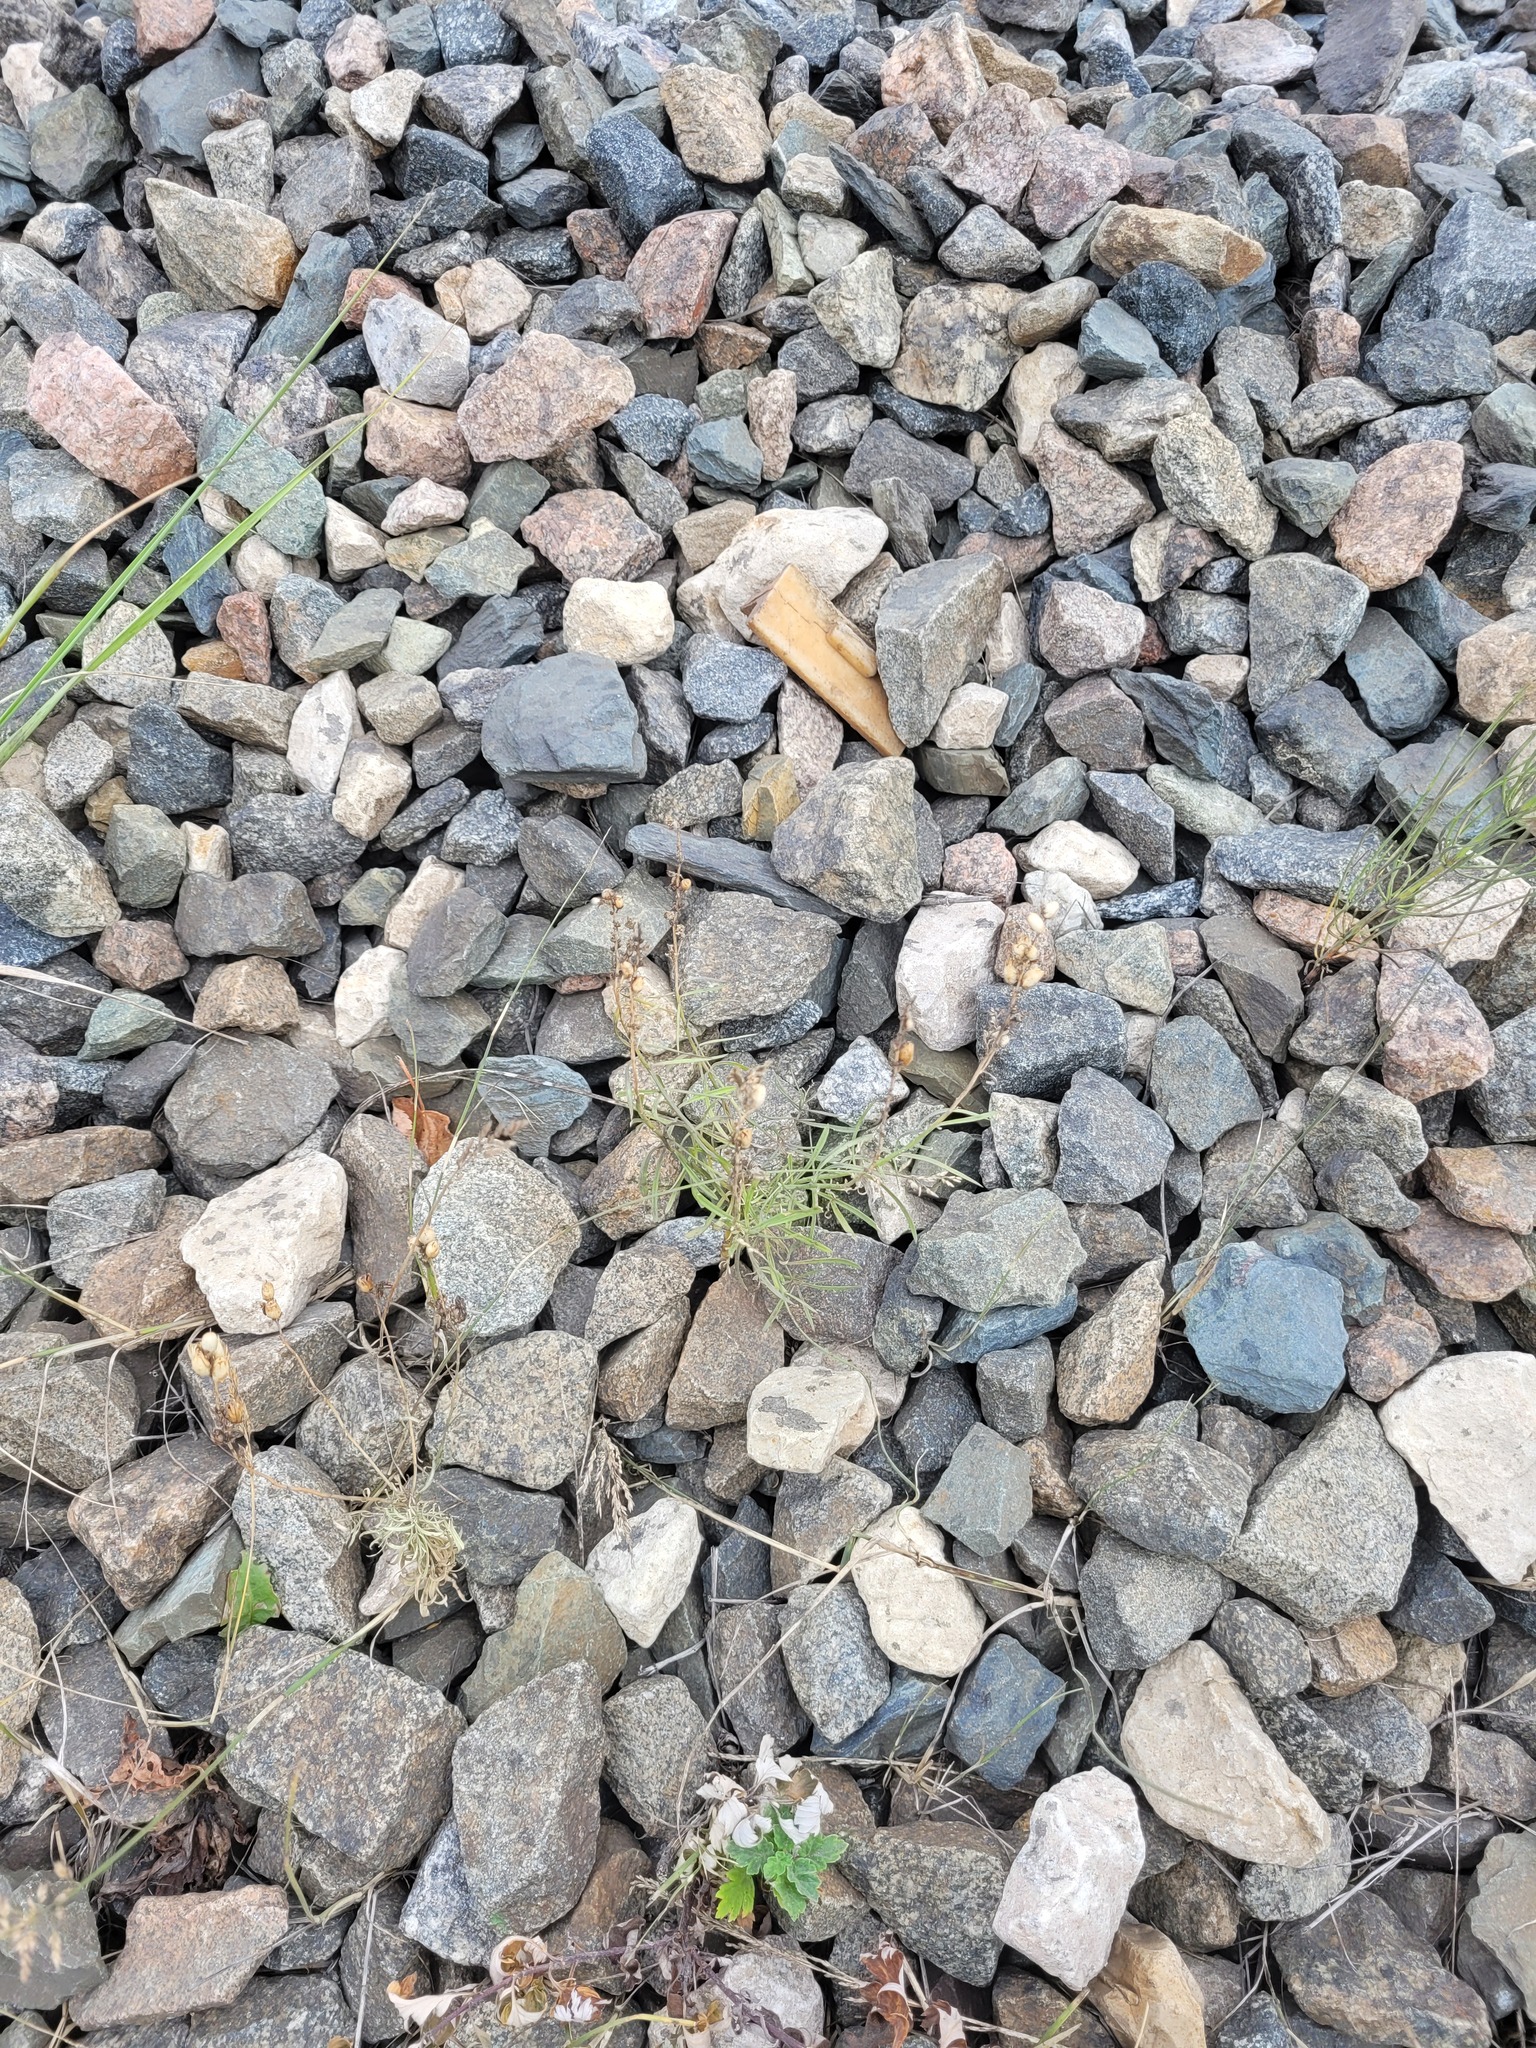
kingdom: Plantae
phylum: Tracheophyta
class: Magnoliopsida
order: Lamiales
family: Plantaginaceae
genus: Linaria
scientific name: Linaria vulgaris
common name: Butter and eggs
